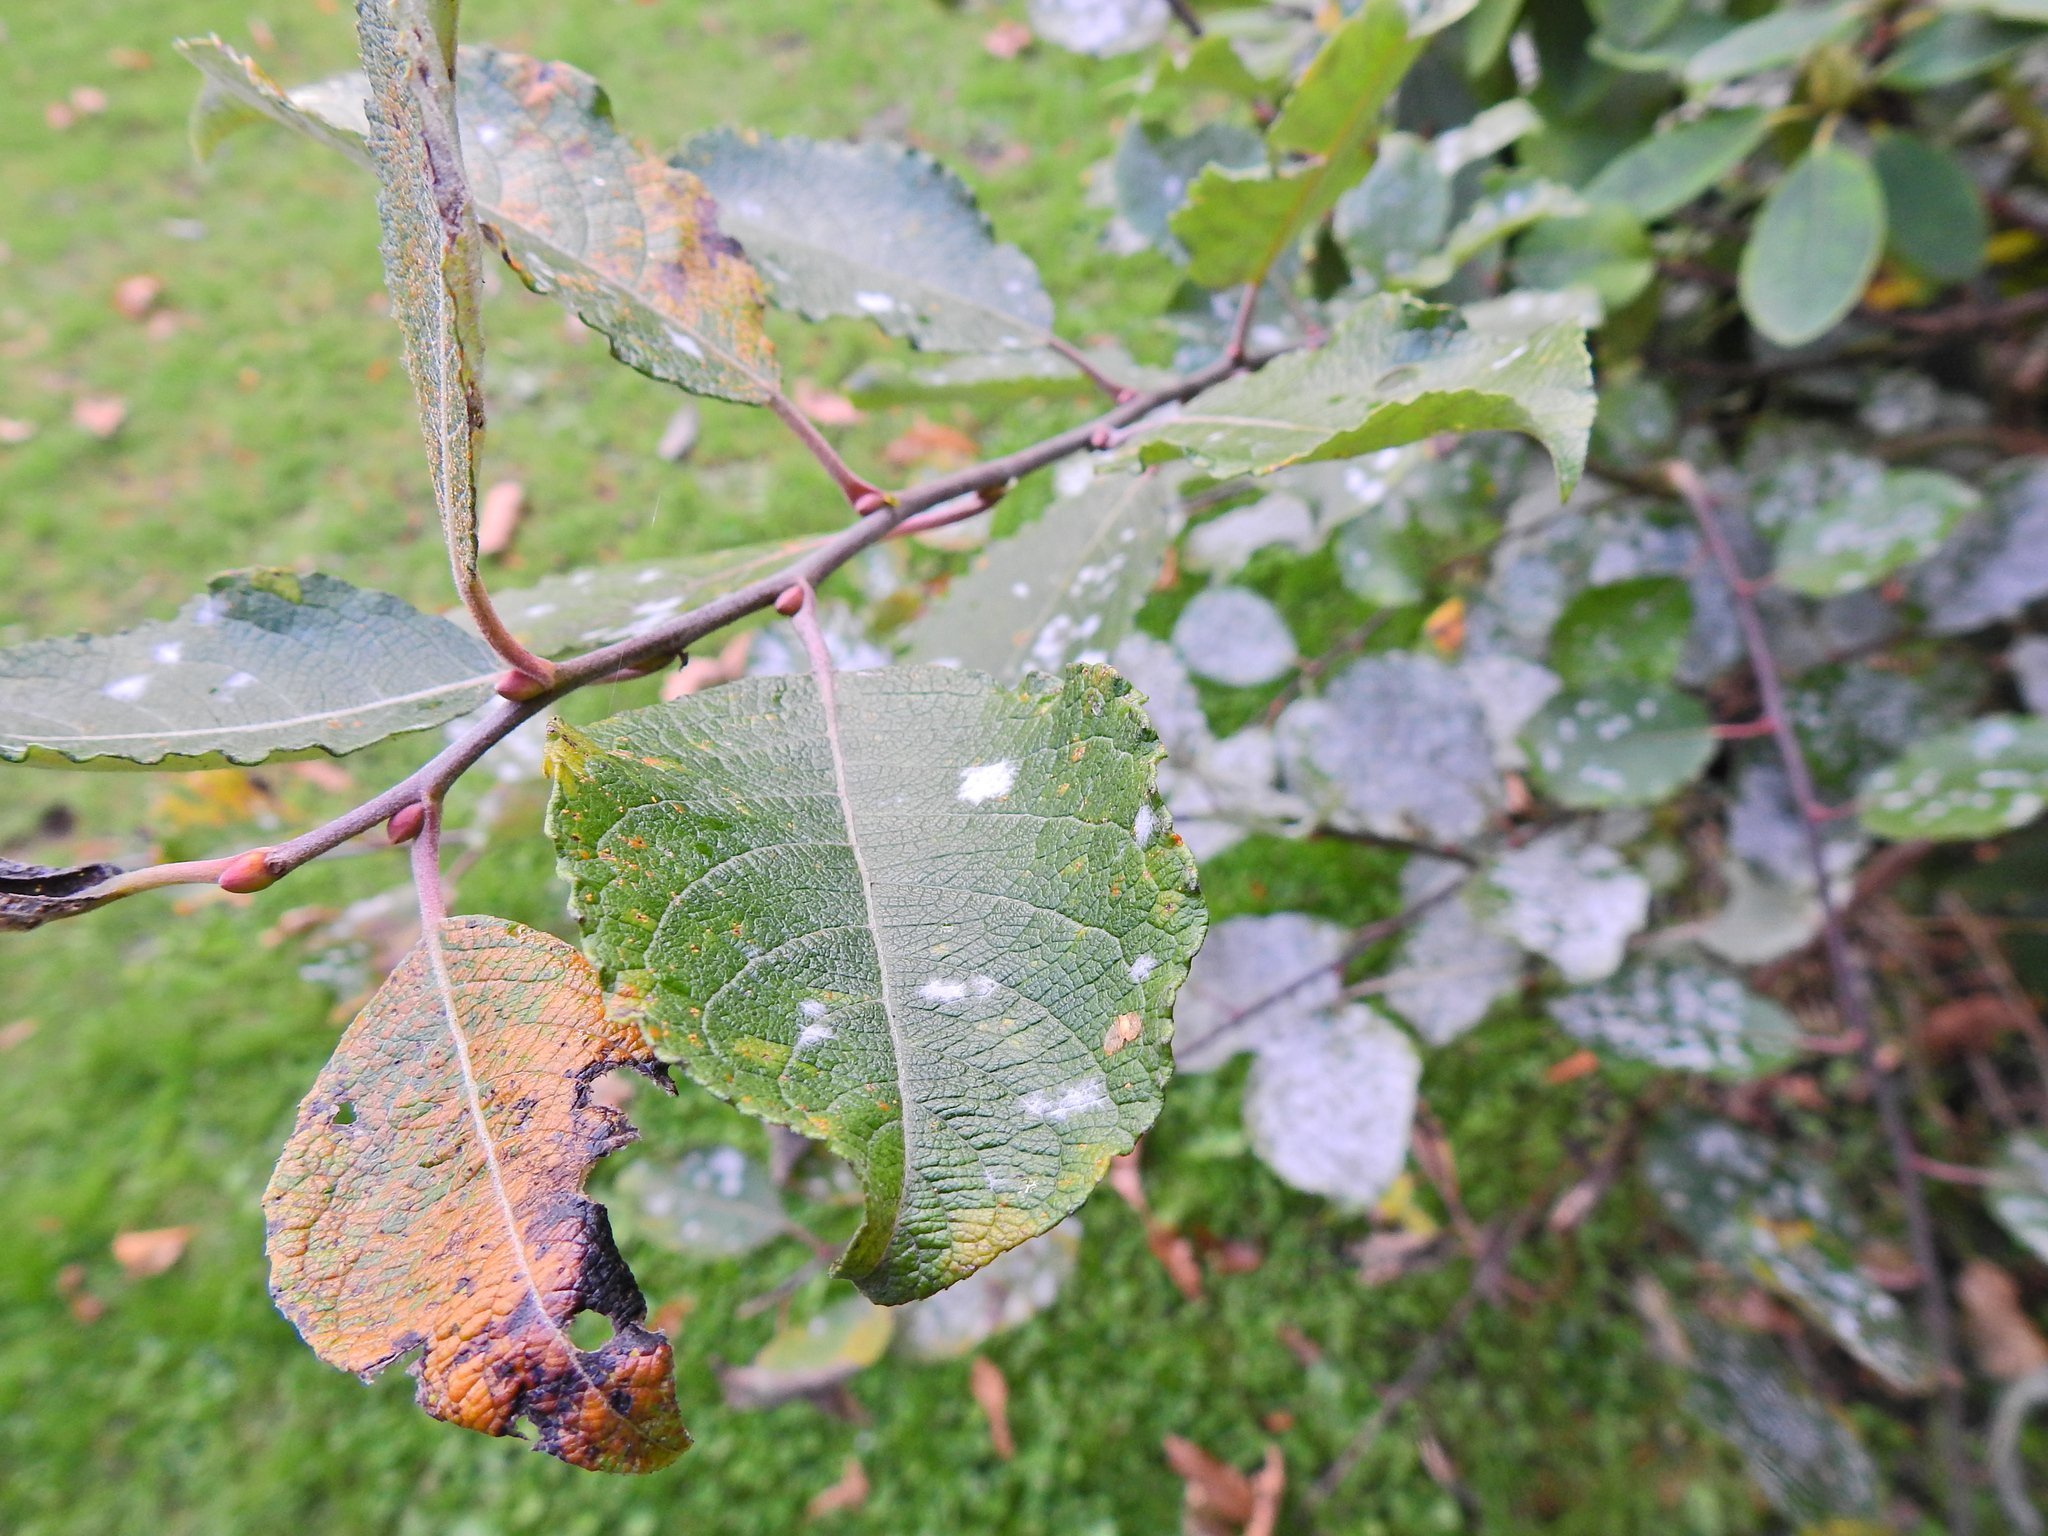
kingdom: Plantae
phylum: Tracheophyta
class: Magnoliopsida
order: Malpighiales
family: Salicaceae
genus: Salix
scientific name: Salix caprea
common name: Goat willow
